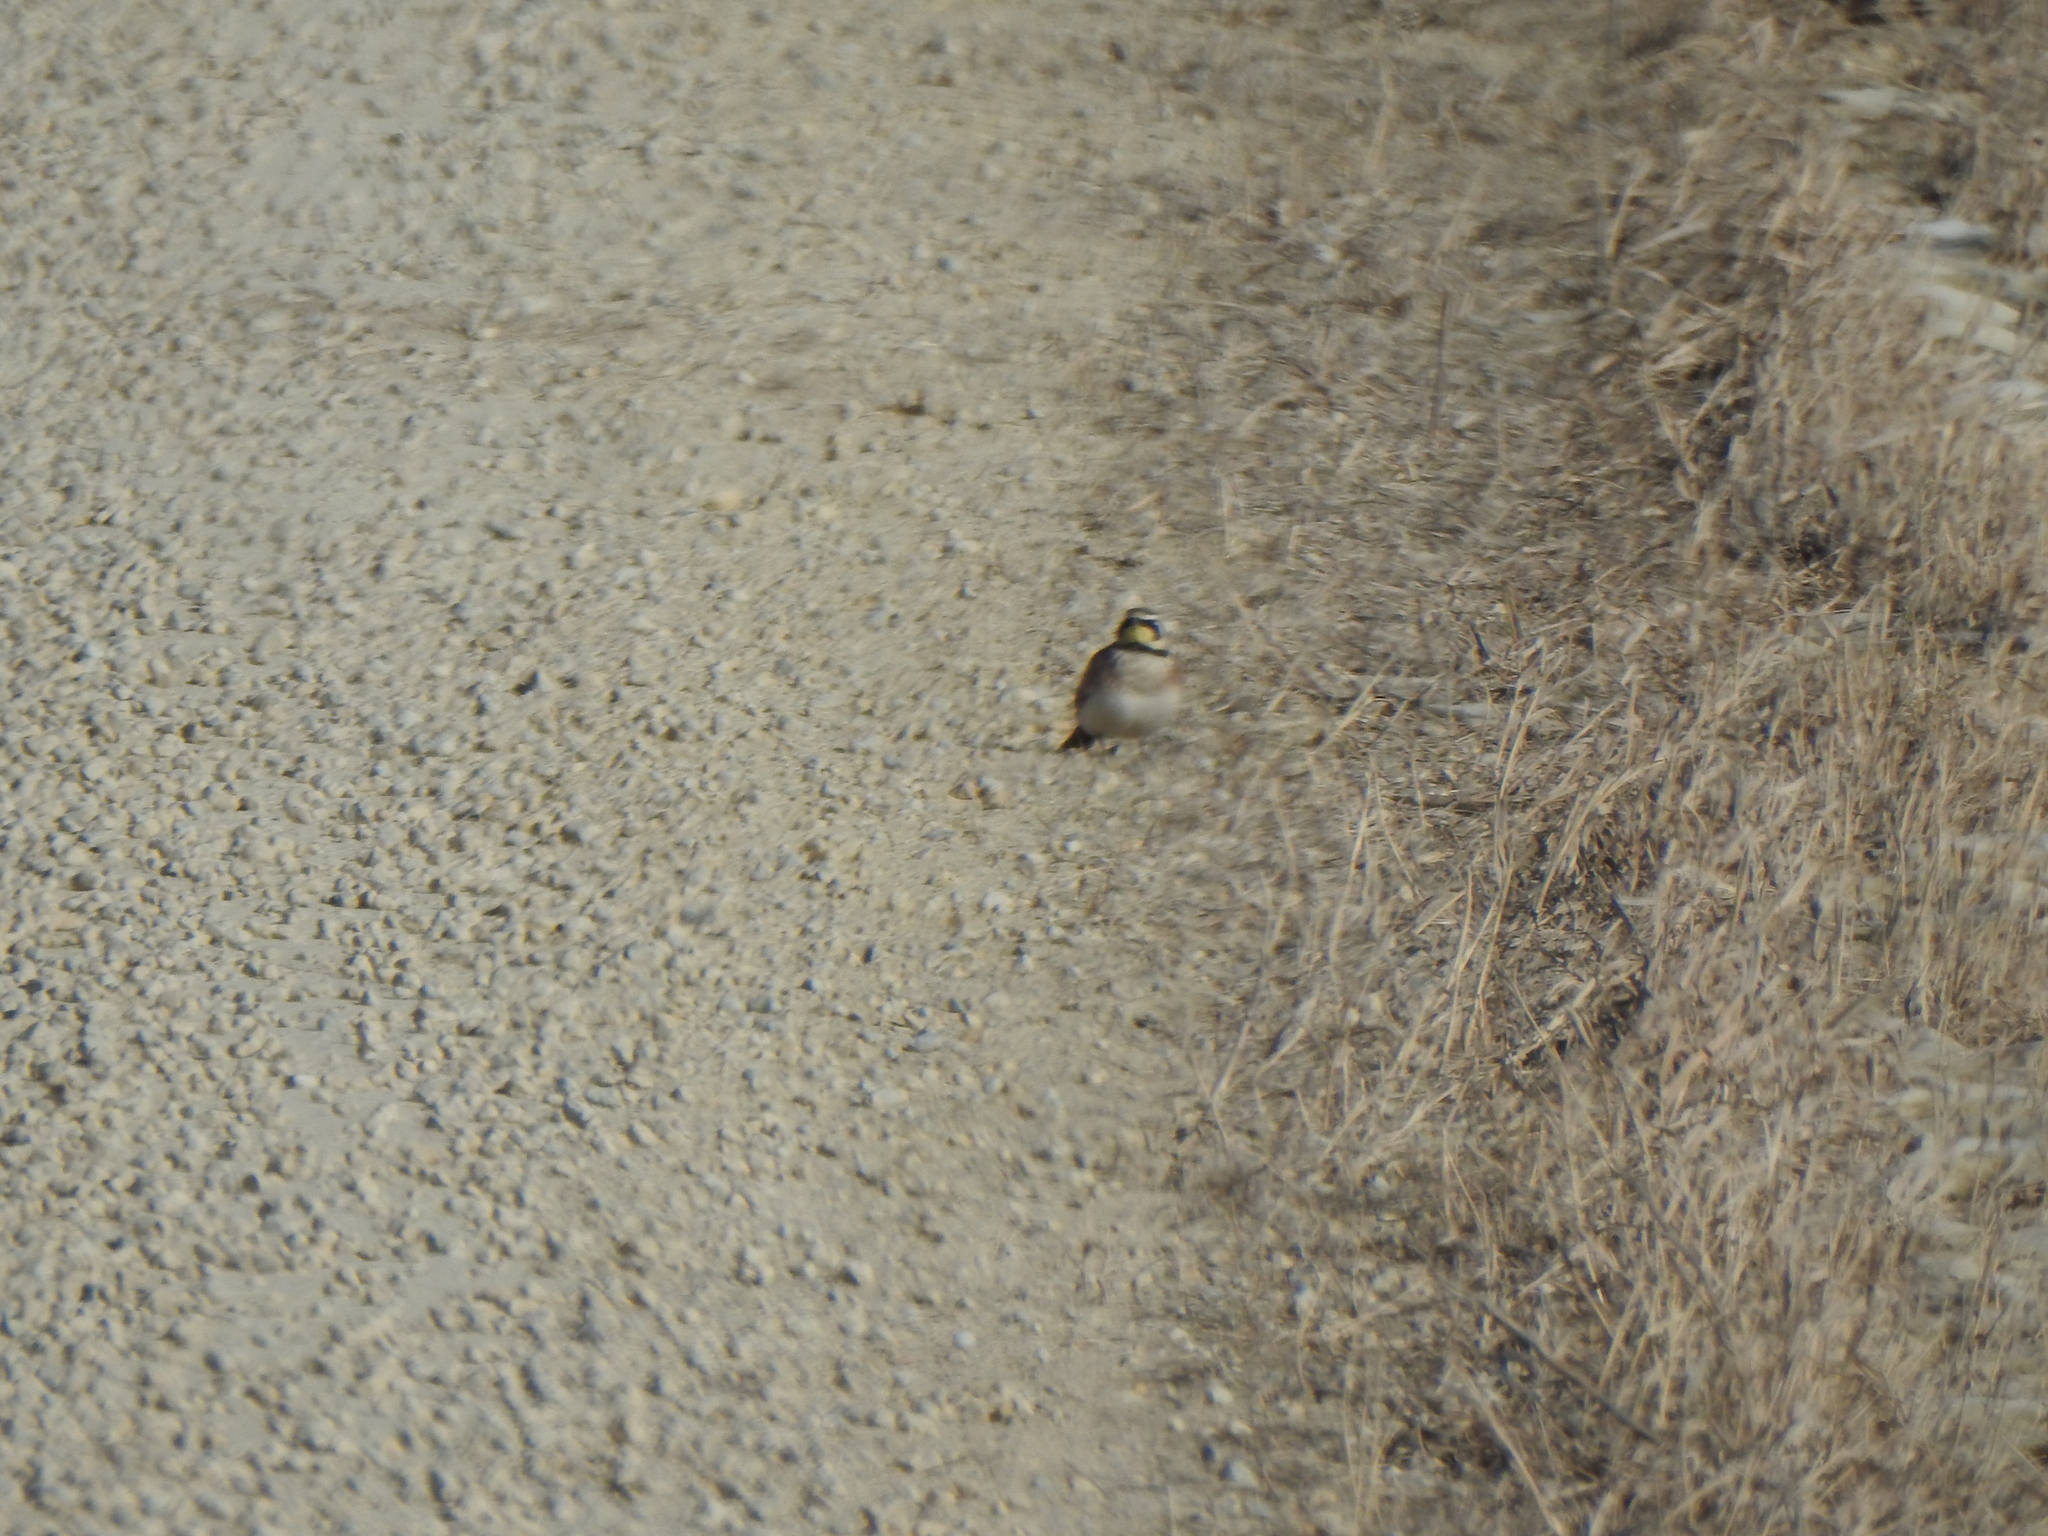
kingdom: Animalia
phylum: Chordata
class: Aves
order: Passeriformes
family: Alaudidae
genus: Eremophila
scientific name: Eremophila alpestris
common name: Horned lark
